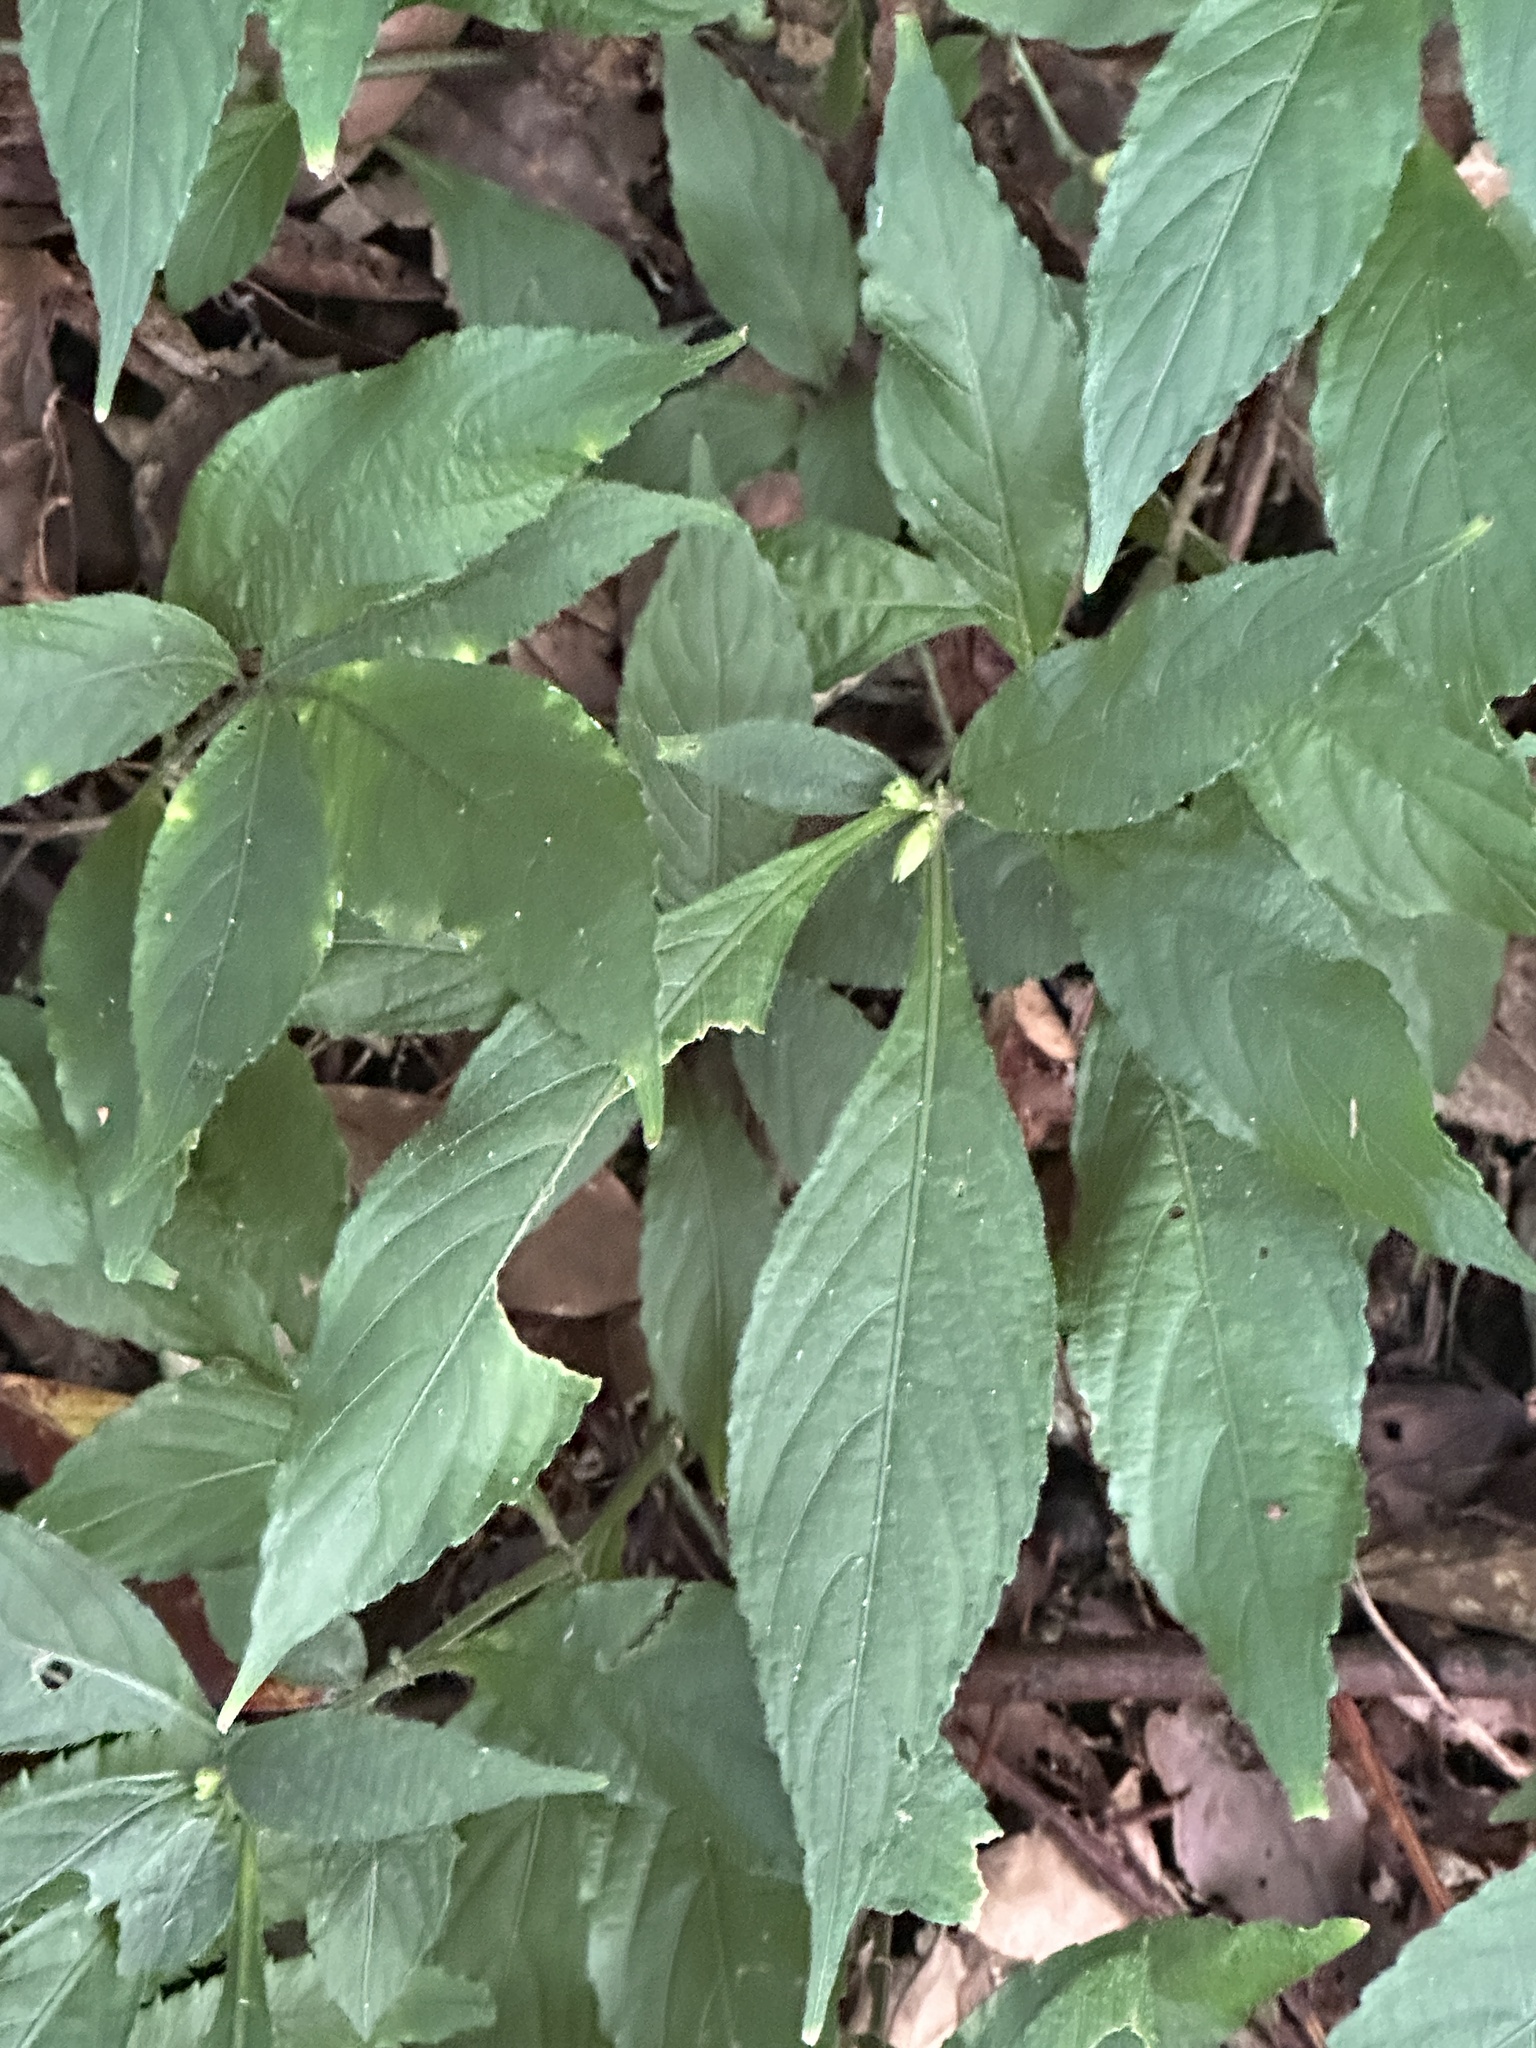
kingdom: Plantae
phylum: Tracheophyta
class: Magnoliopsida
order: Lamiales
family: Acanthaceae
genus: Strobilanthes
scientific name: Strobilanthes formosana
